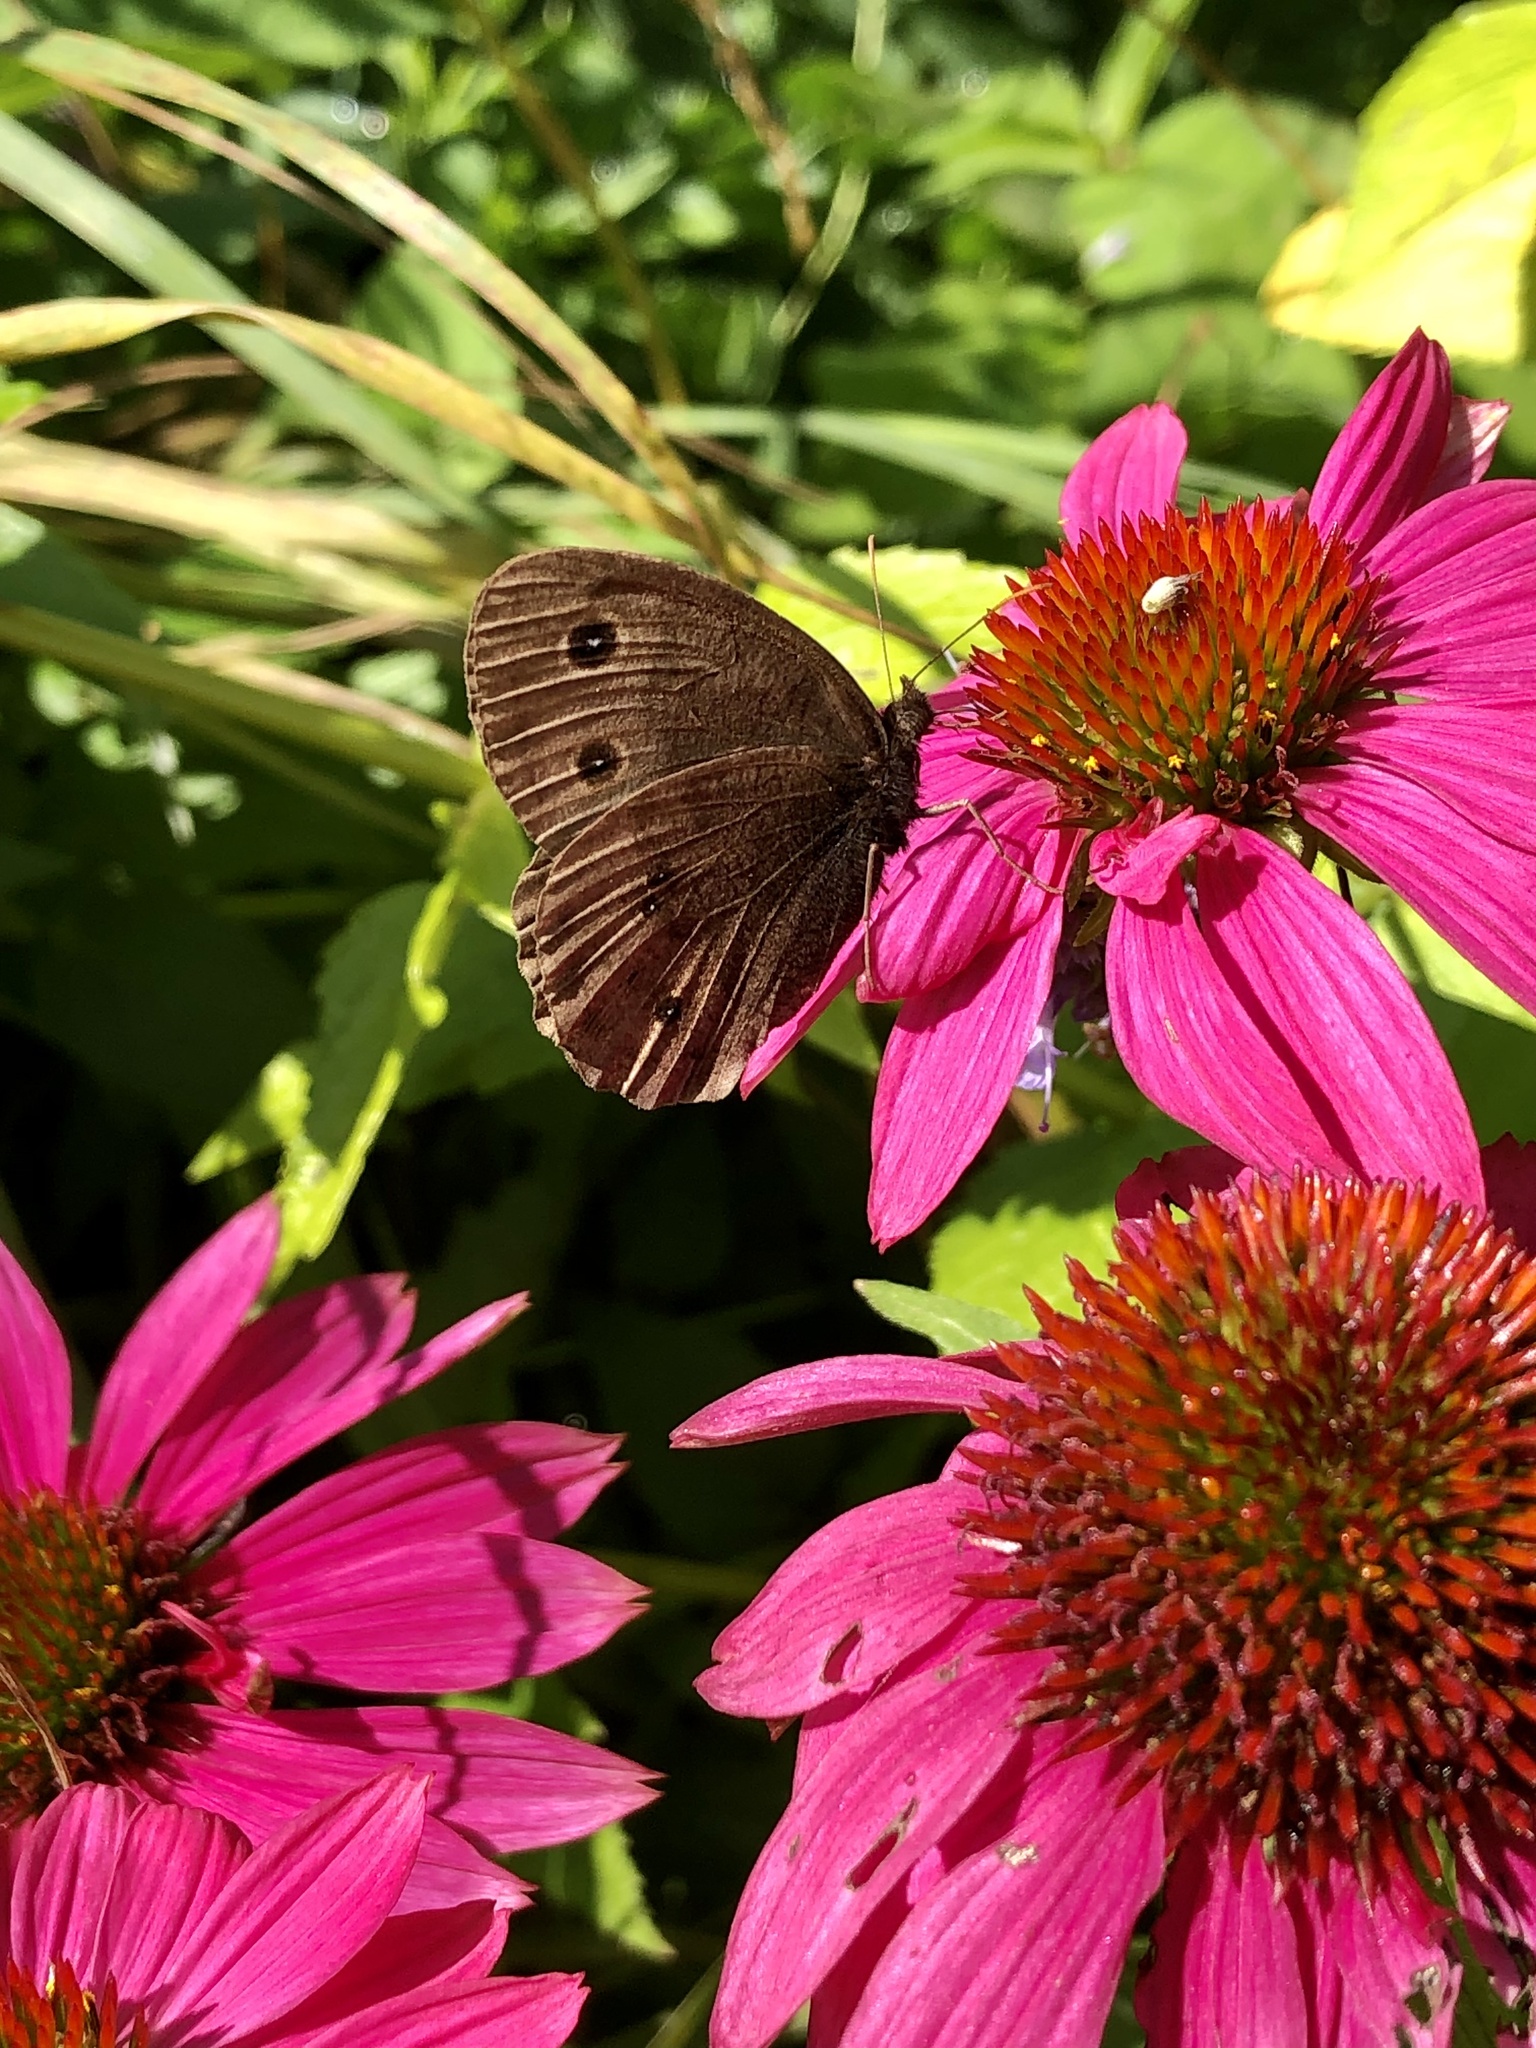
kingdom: Animalia
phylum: Arthropoda
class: Insecta
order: Lepidoptera
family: Nymphalidae
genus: Cercyonis
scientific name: Cercyonis pegala
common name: Common wood-nymph
